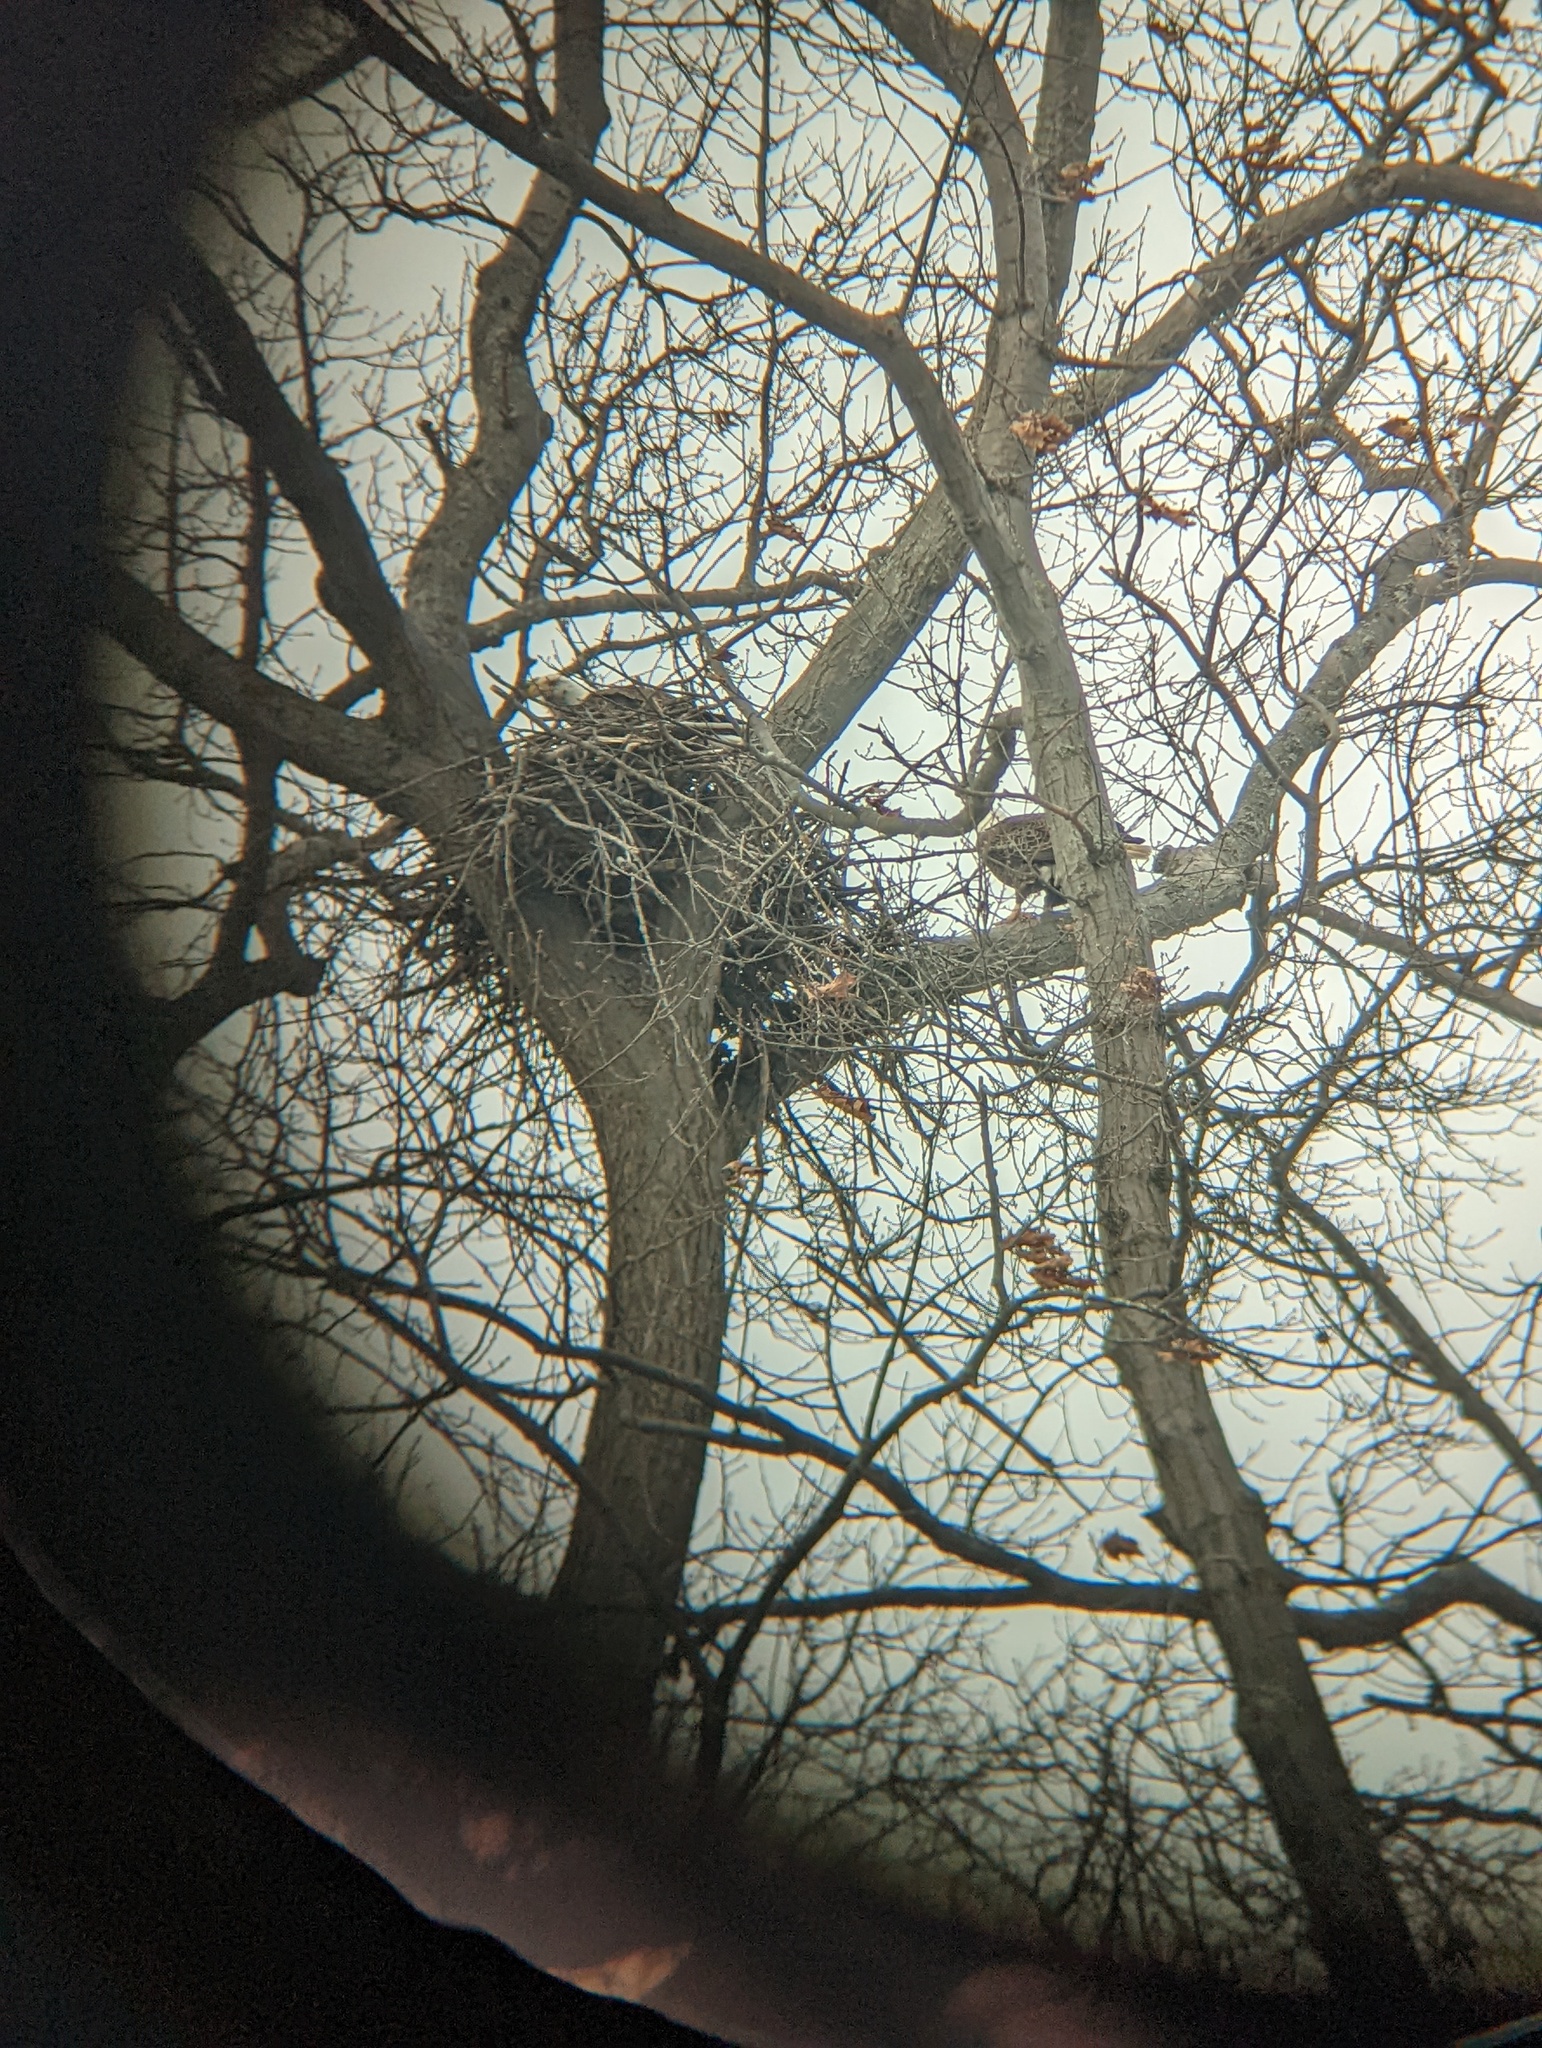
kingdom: Animalia
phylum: Chordata
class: Aves
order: Accipitriformes
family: Accipitridae
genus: Haliaeetus
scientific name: Haliaeetus leucocephalus
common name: Bald eagle
